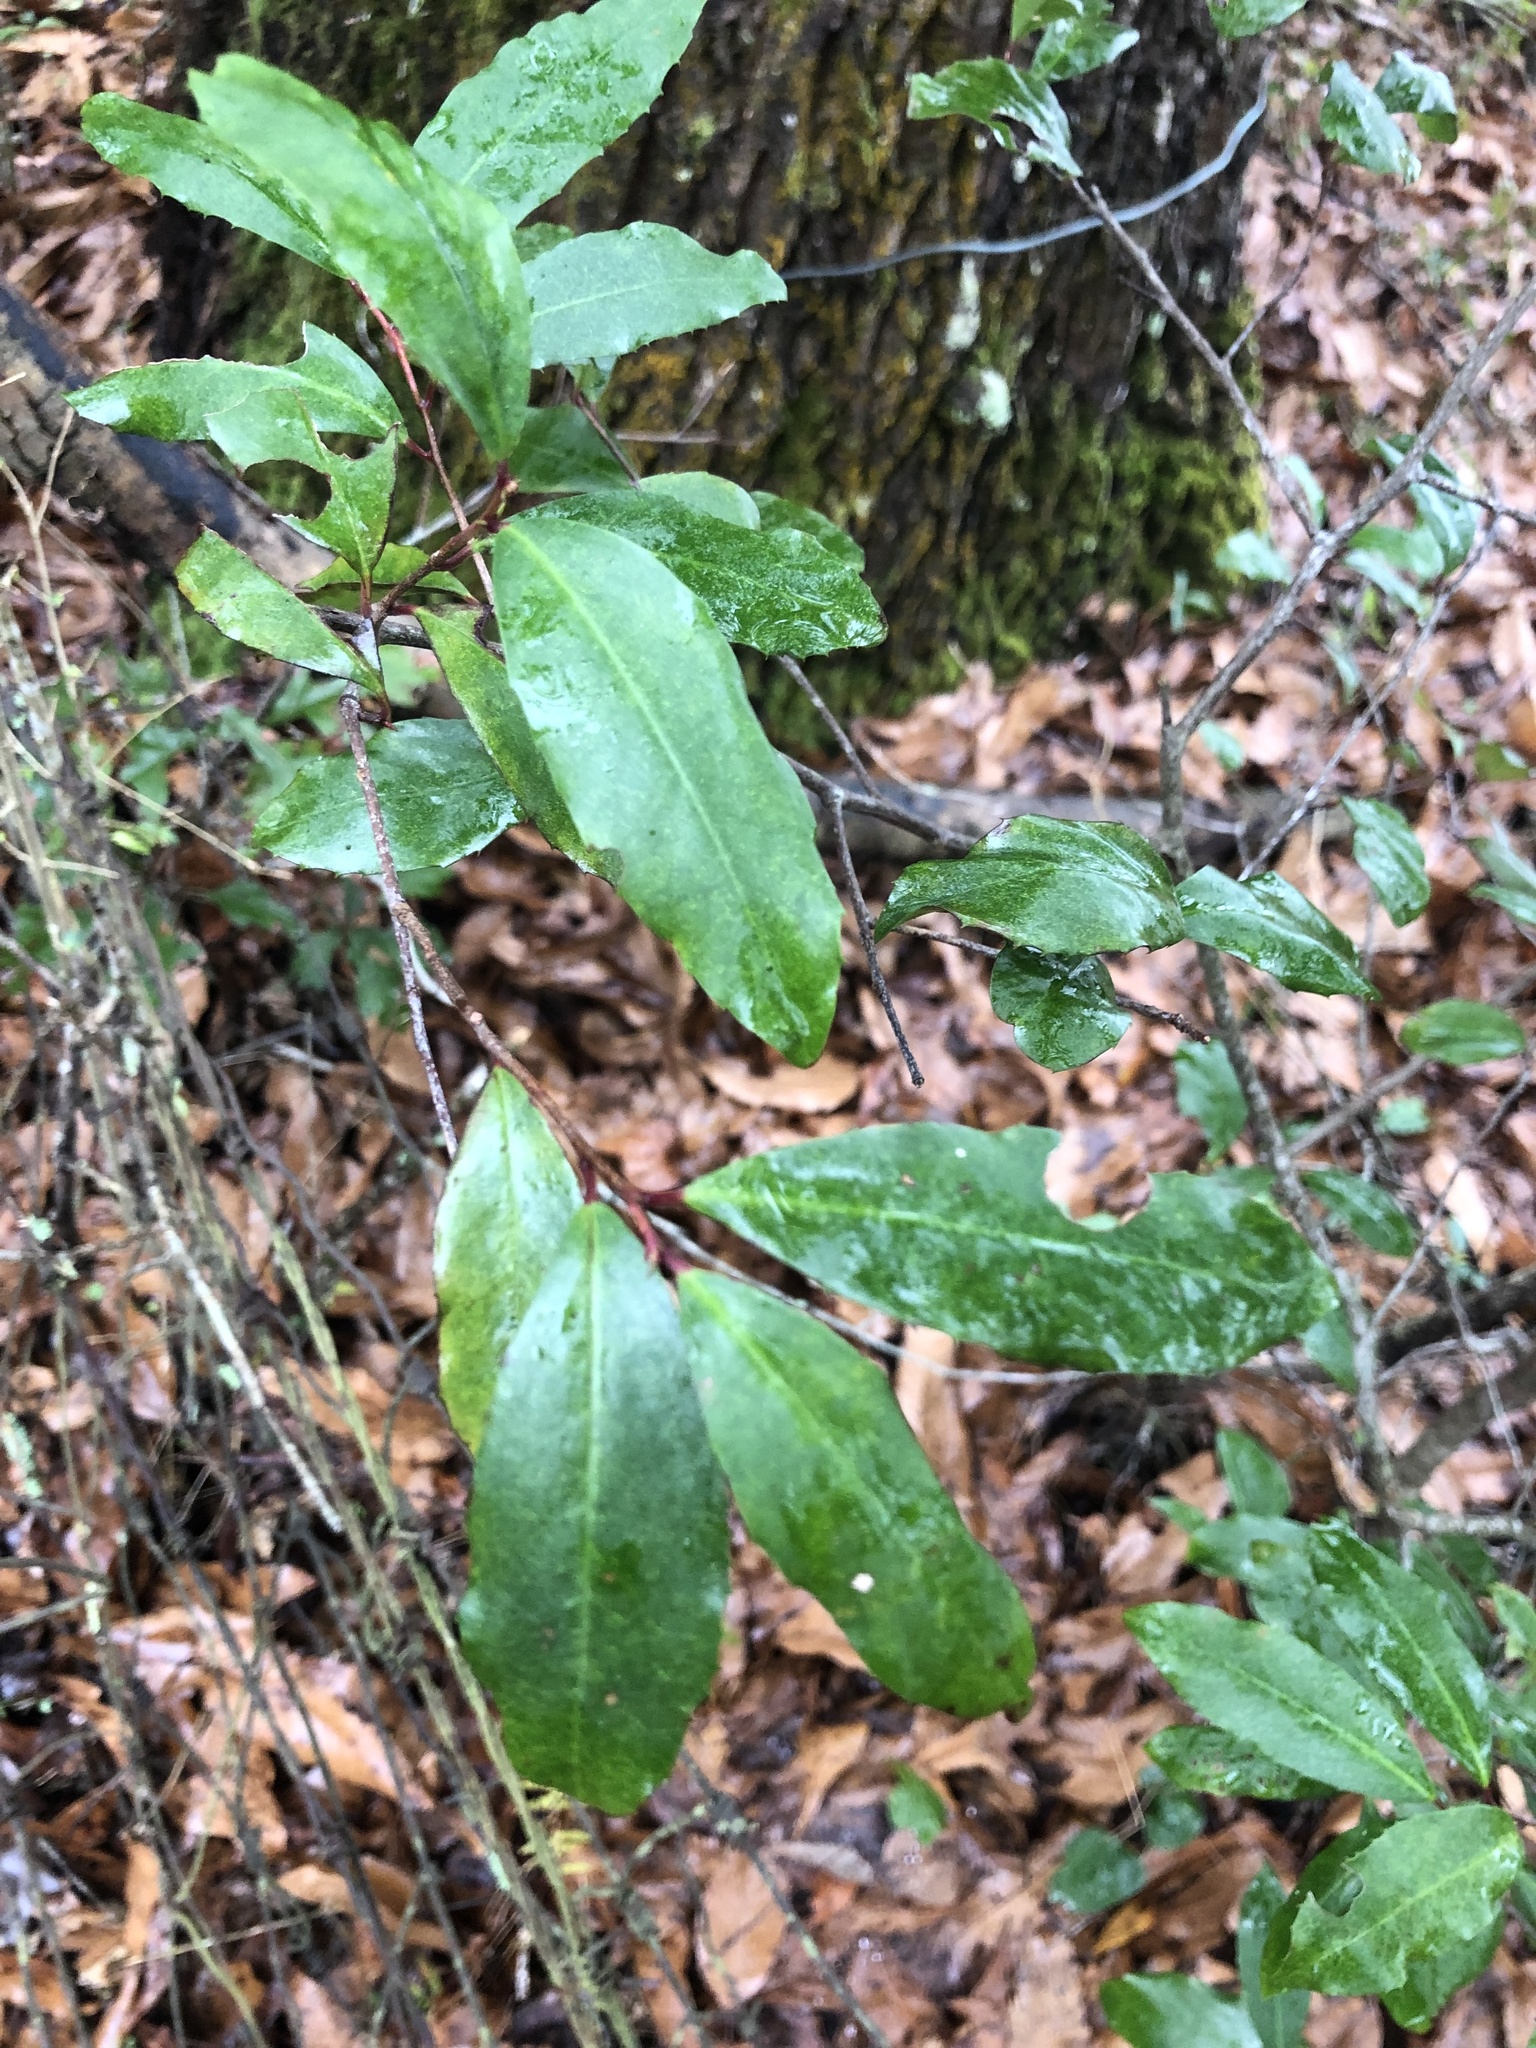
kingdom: Plantae
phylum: Tracheophyta
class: Magnoliopsida
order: Rosales
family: Rosaceae
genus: Prunus
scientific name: Prunus caroliniana
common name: Carolina laurel cherry
